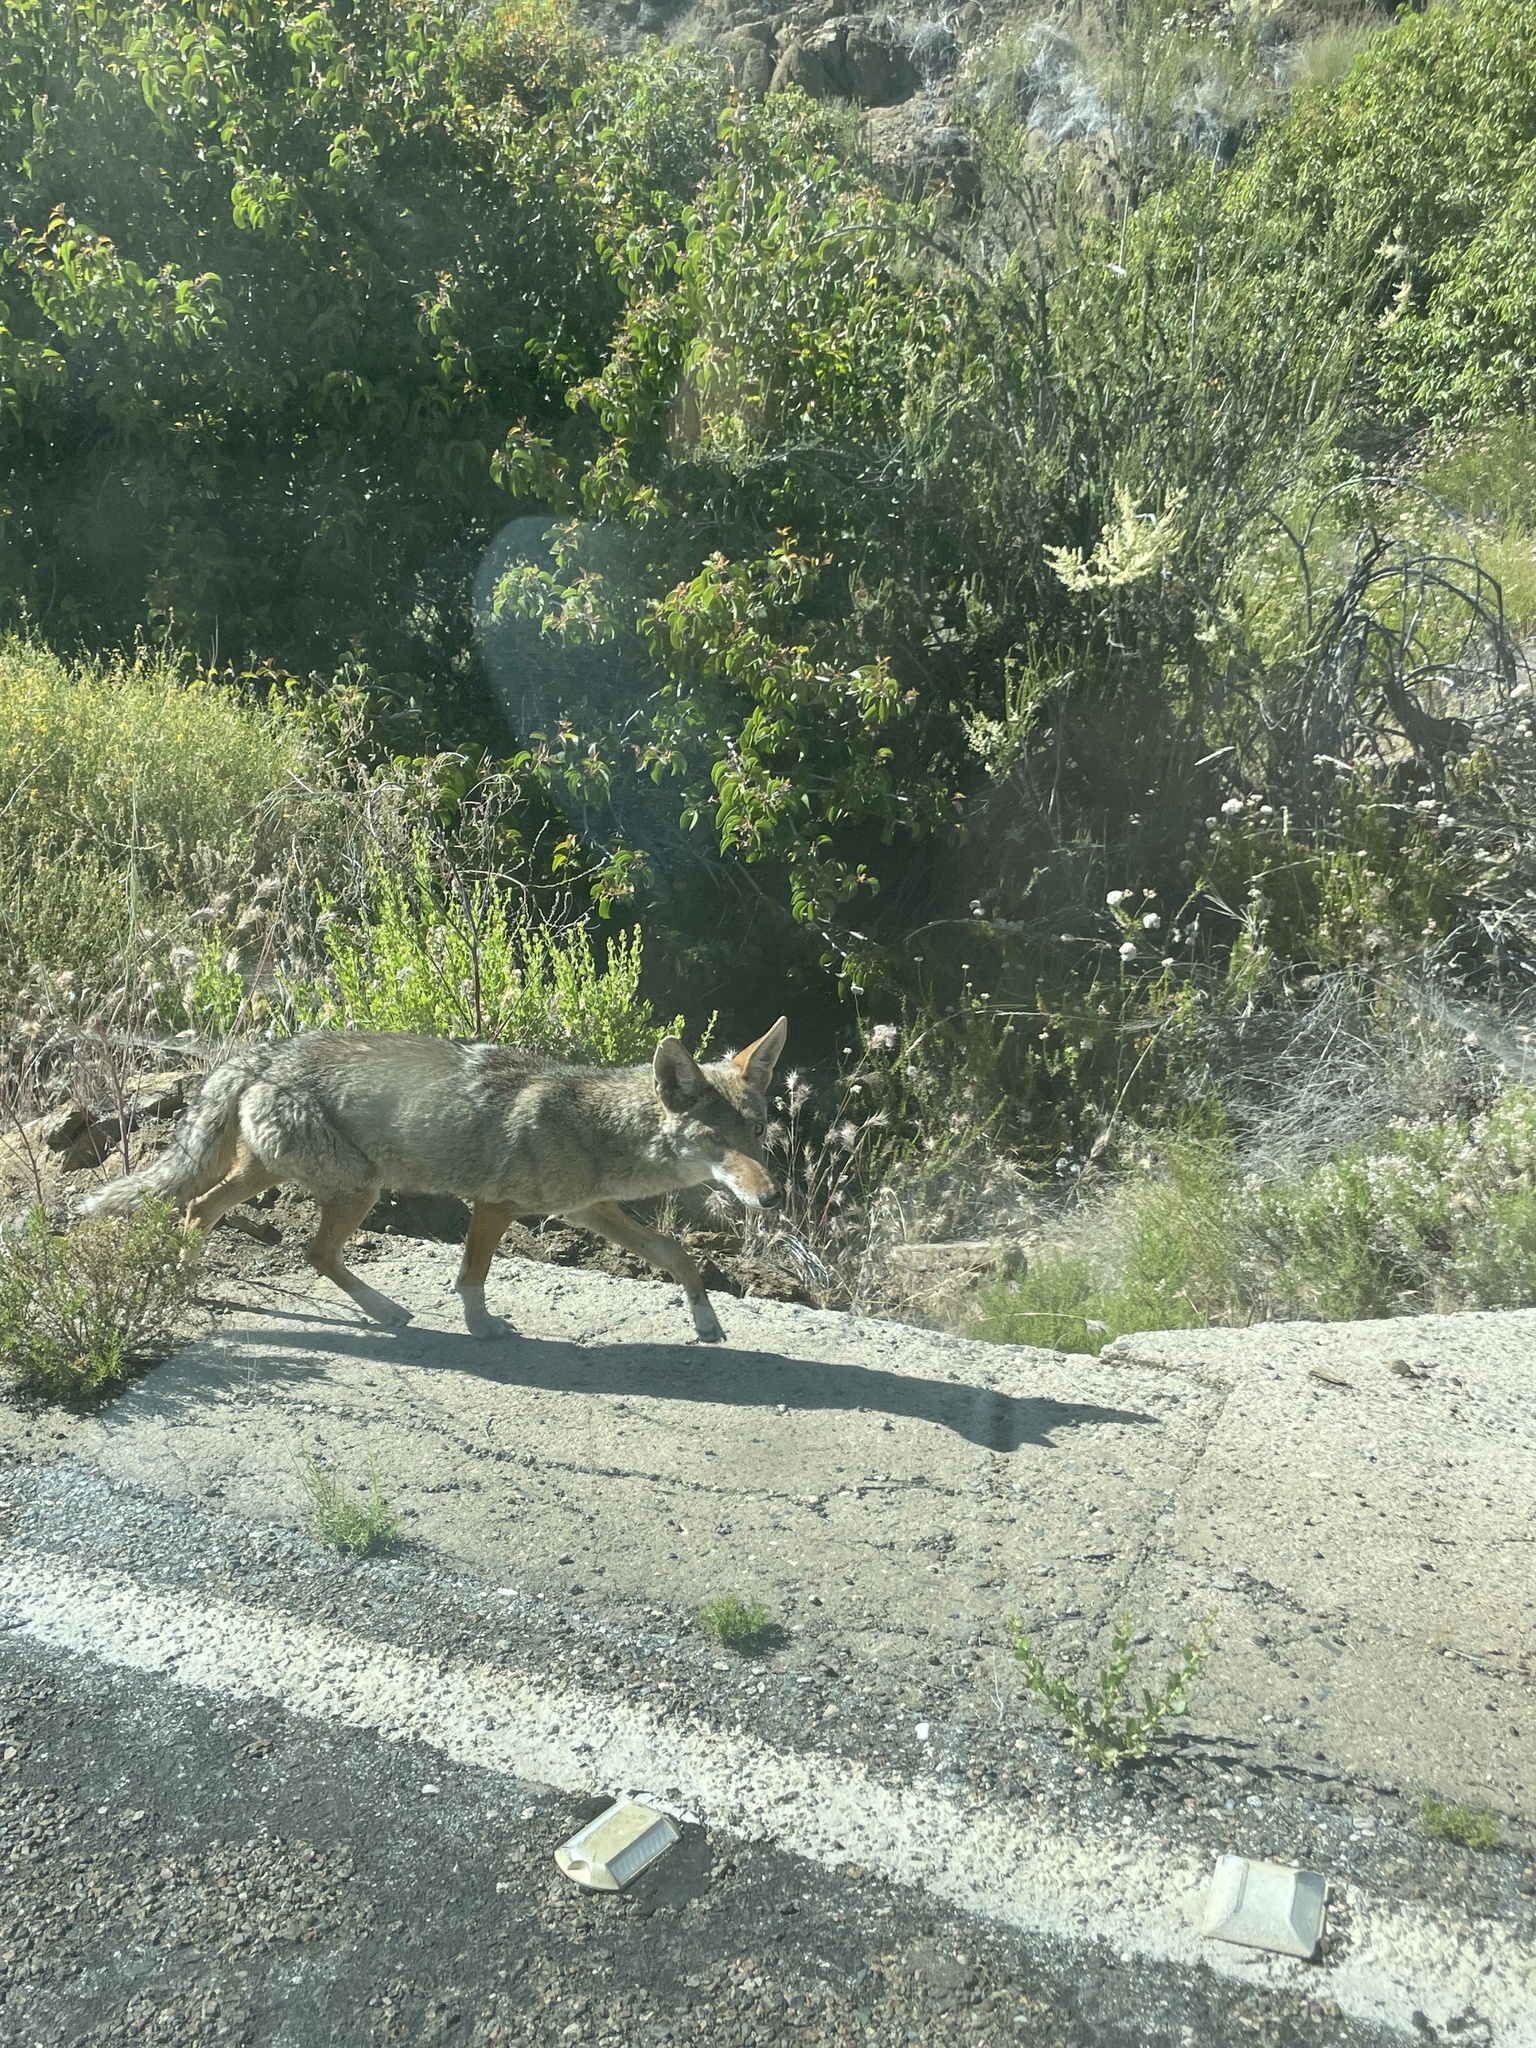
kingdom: Animalia
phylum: Chordata
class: Mammalia
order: Carnivora
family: Canidae
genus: Canis
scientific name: Canis latrans
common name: Coyote
